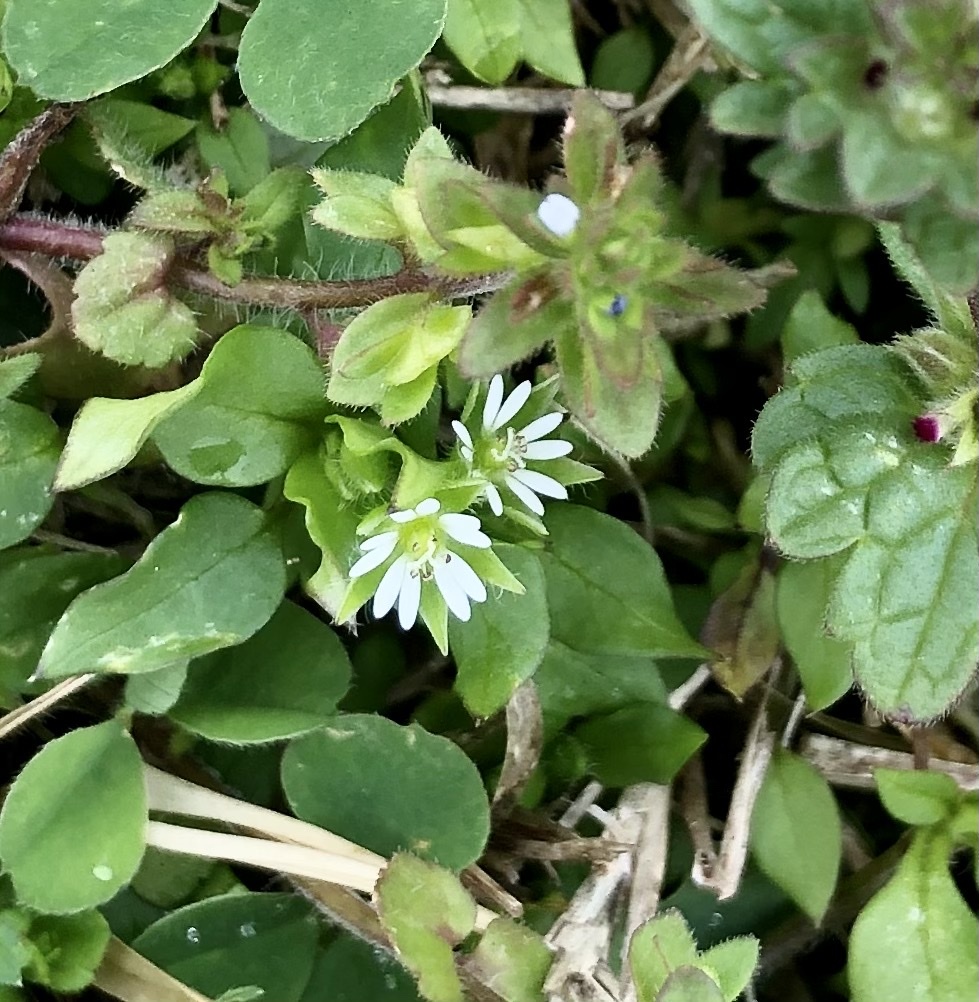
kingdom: Plantae
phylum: Tracheophyta
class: Magnoliopsida
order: Caryophyllales
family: Caryophyllaceae
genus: Stellaria
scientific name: Stellaria media
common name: Common chickweed
